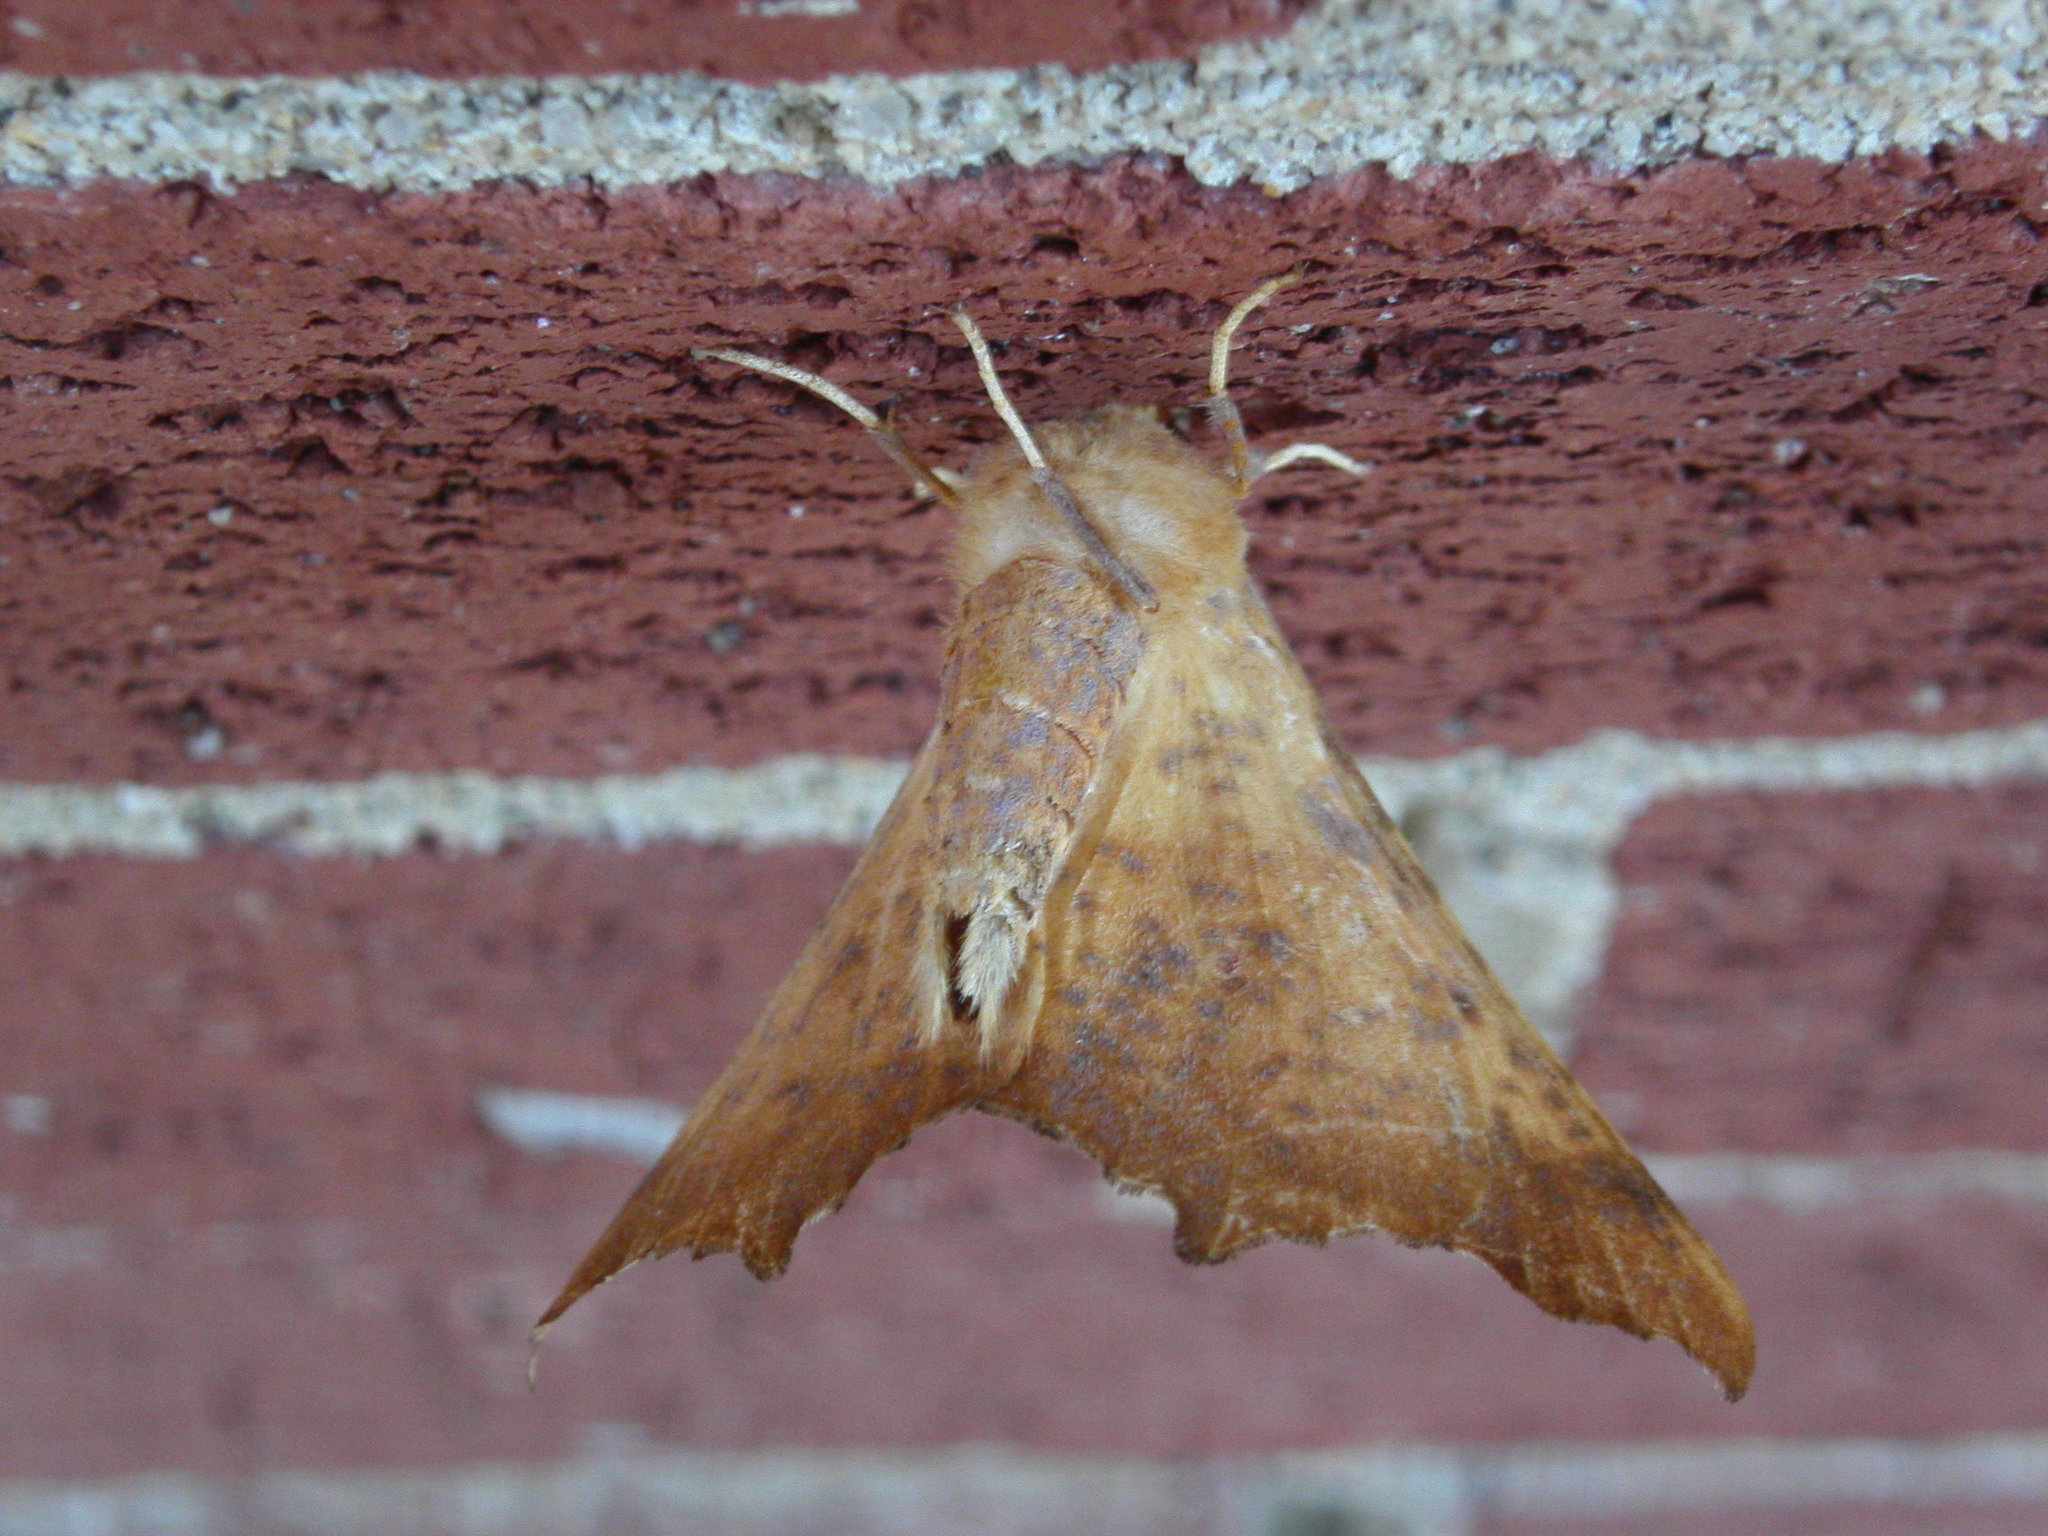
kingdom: Animalia
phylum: Arthropoda
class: Insecta
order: Lepidoptera
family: Geometridae
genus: Ennomos
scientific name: Ennomos magnaria
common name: Maple spanworm
